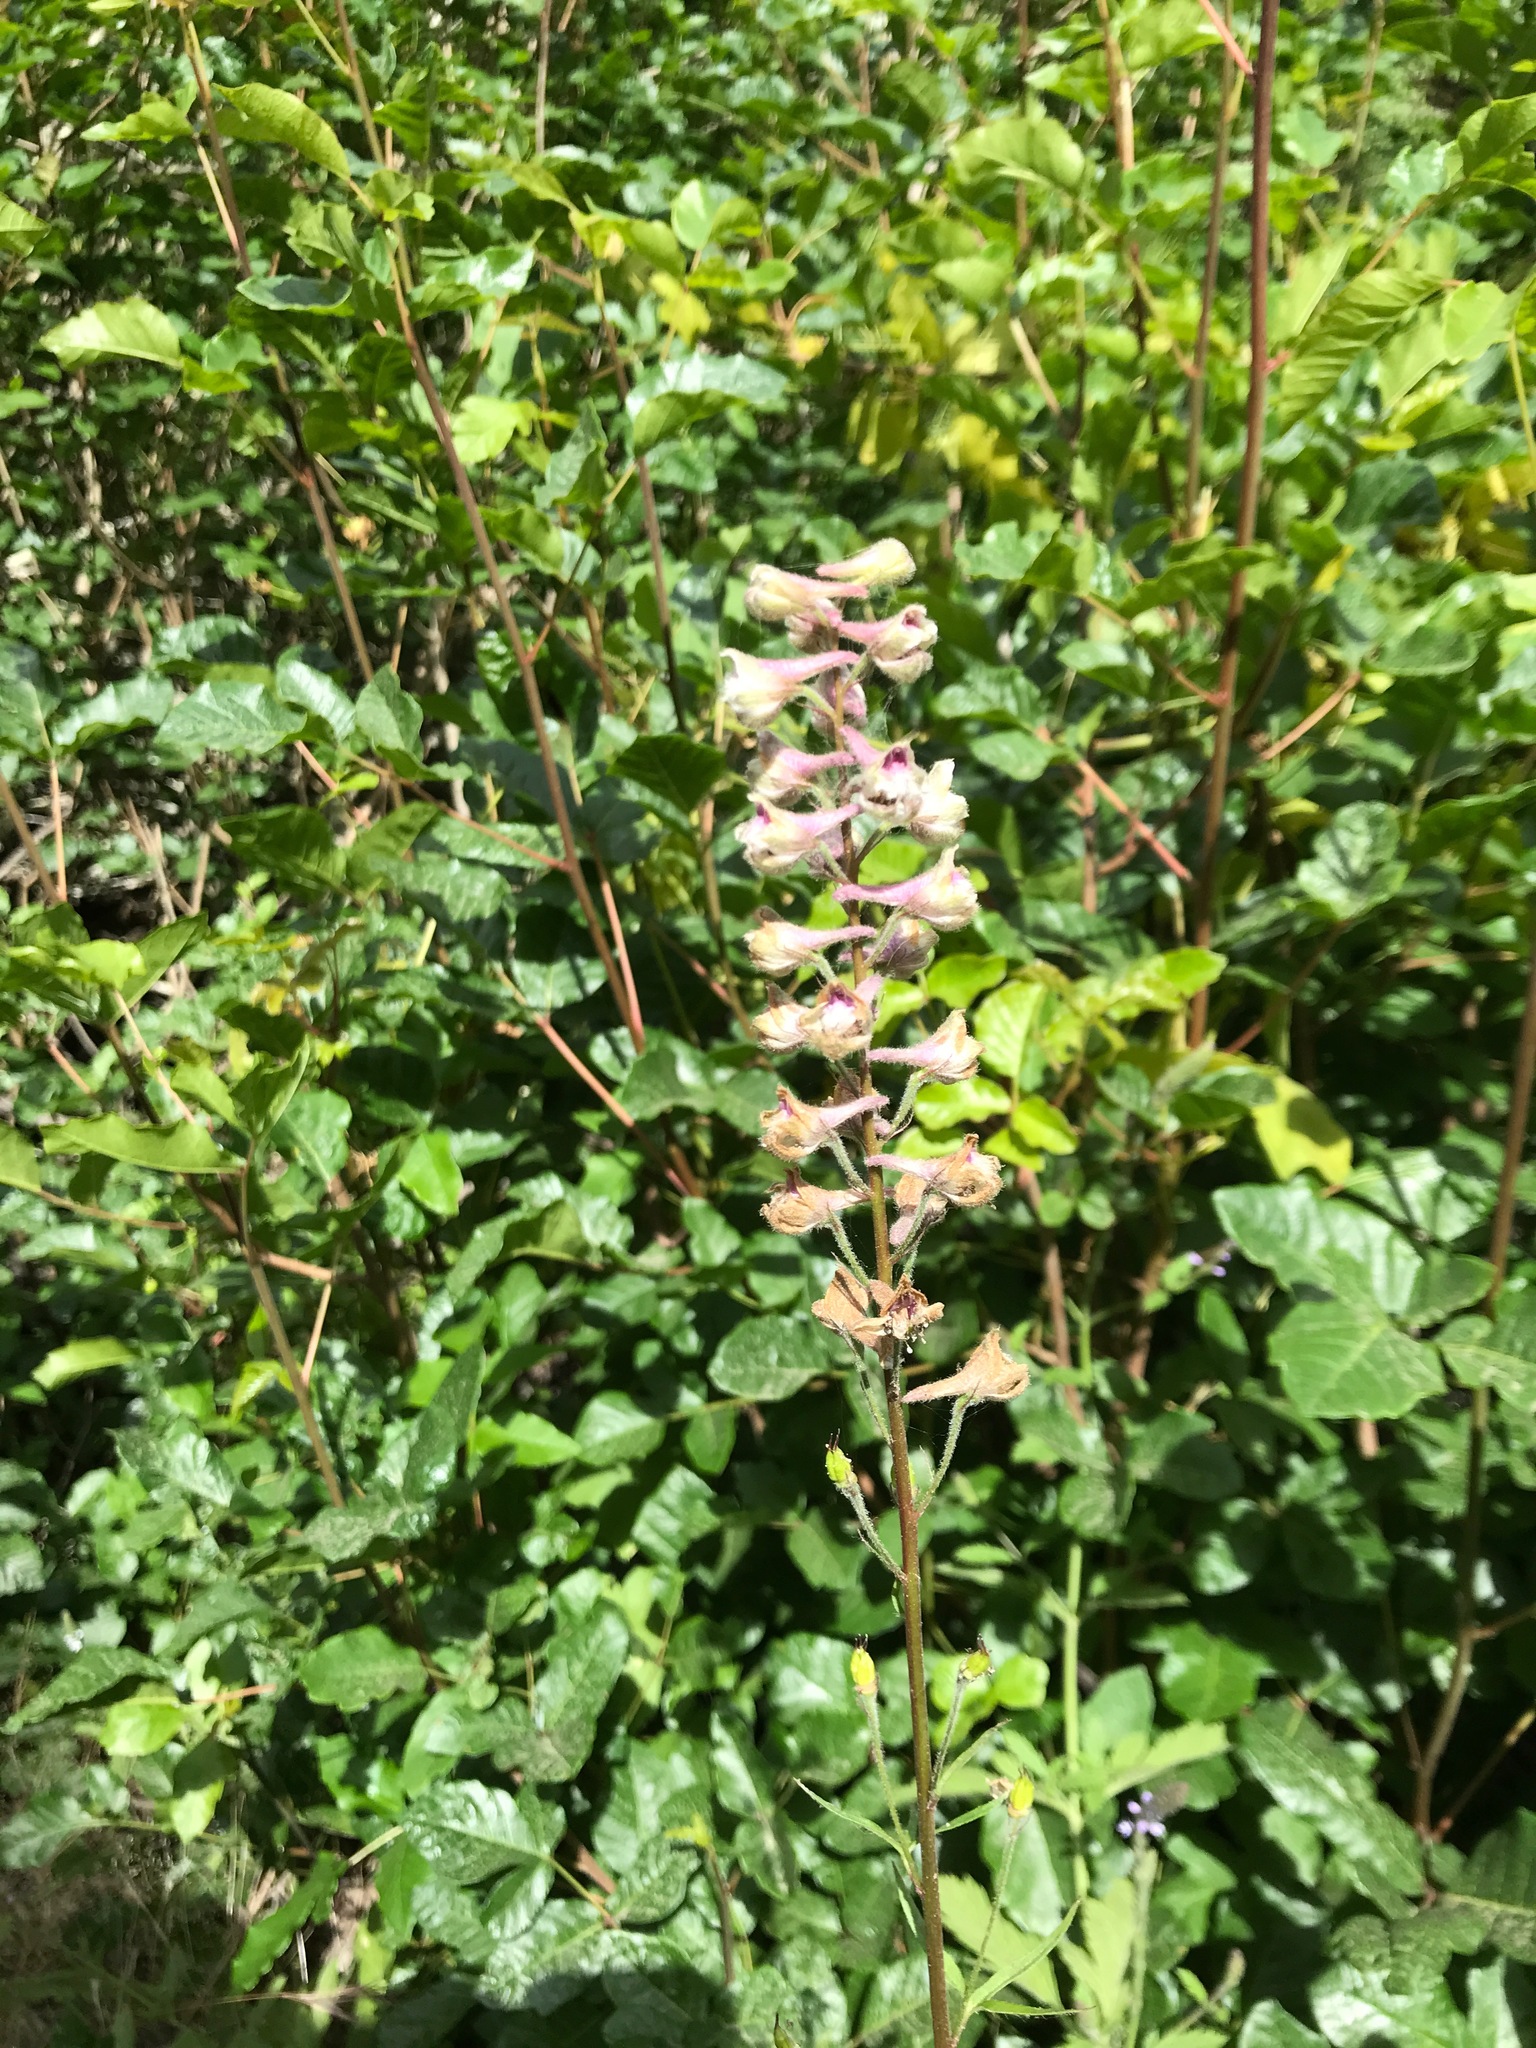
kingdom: Plantae
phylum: Tracheophyta
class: Magnoliopsida
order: Ranunculales
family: Ranunculaceae
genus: Delphinium
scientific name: Delphinium californicum
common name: California larkspur
